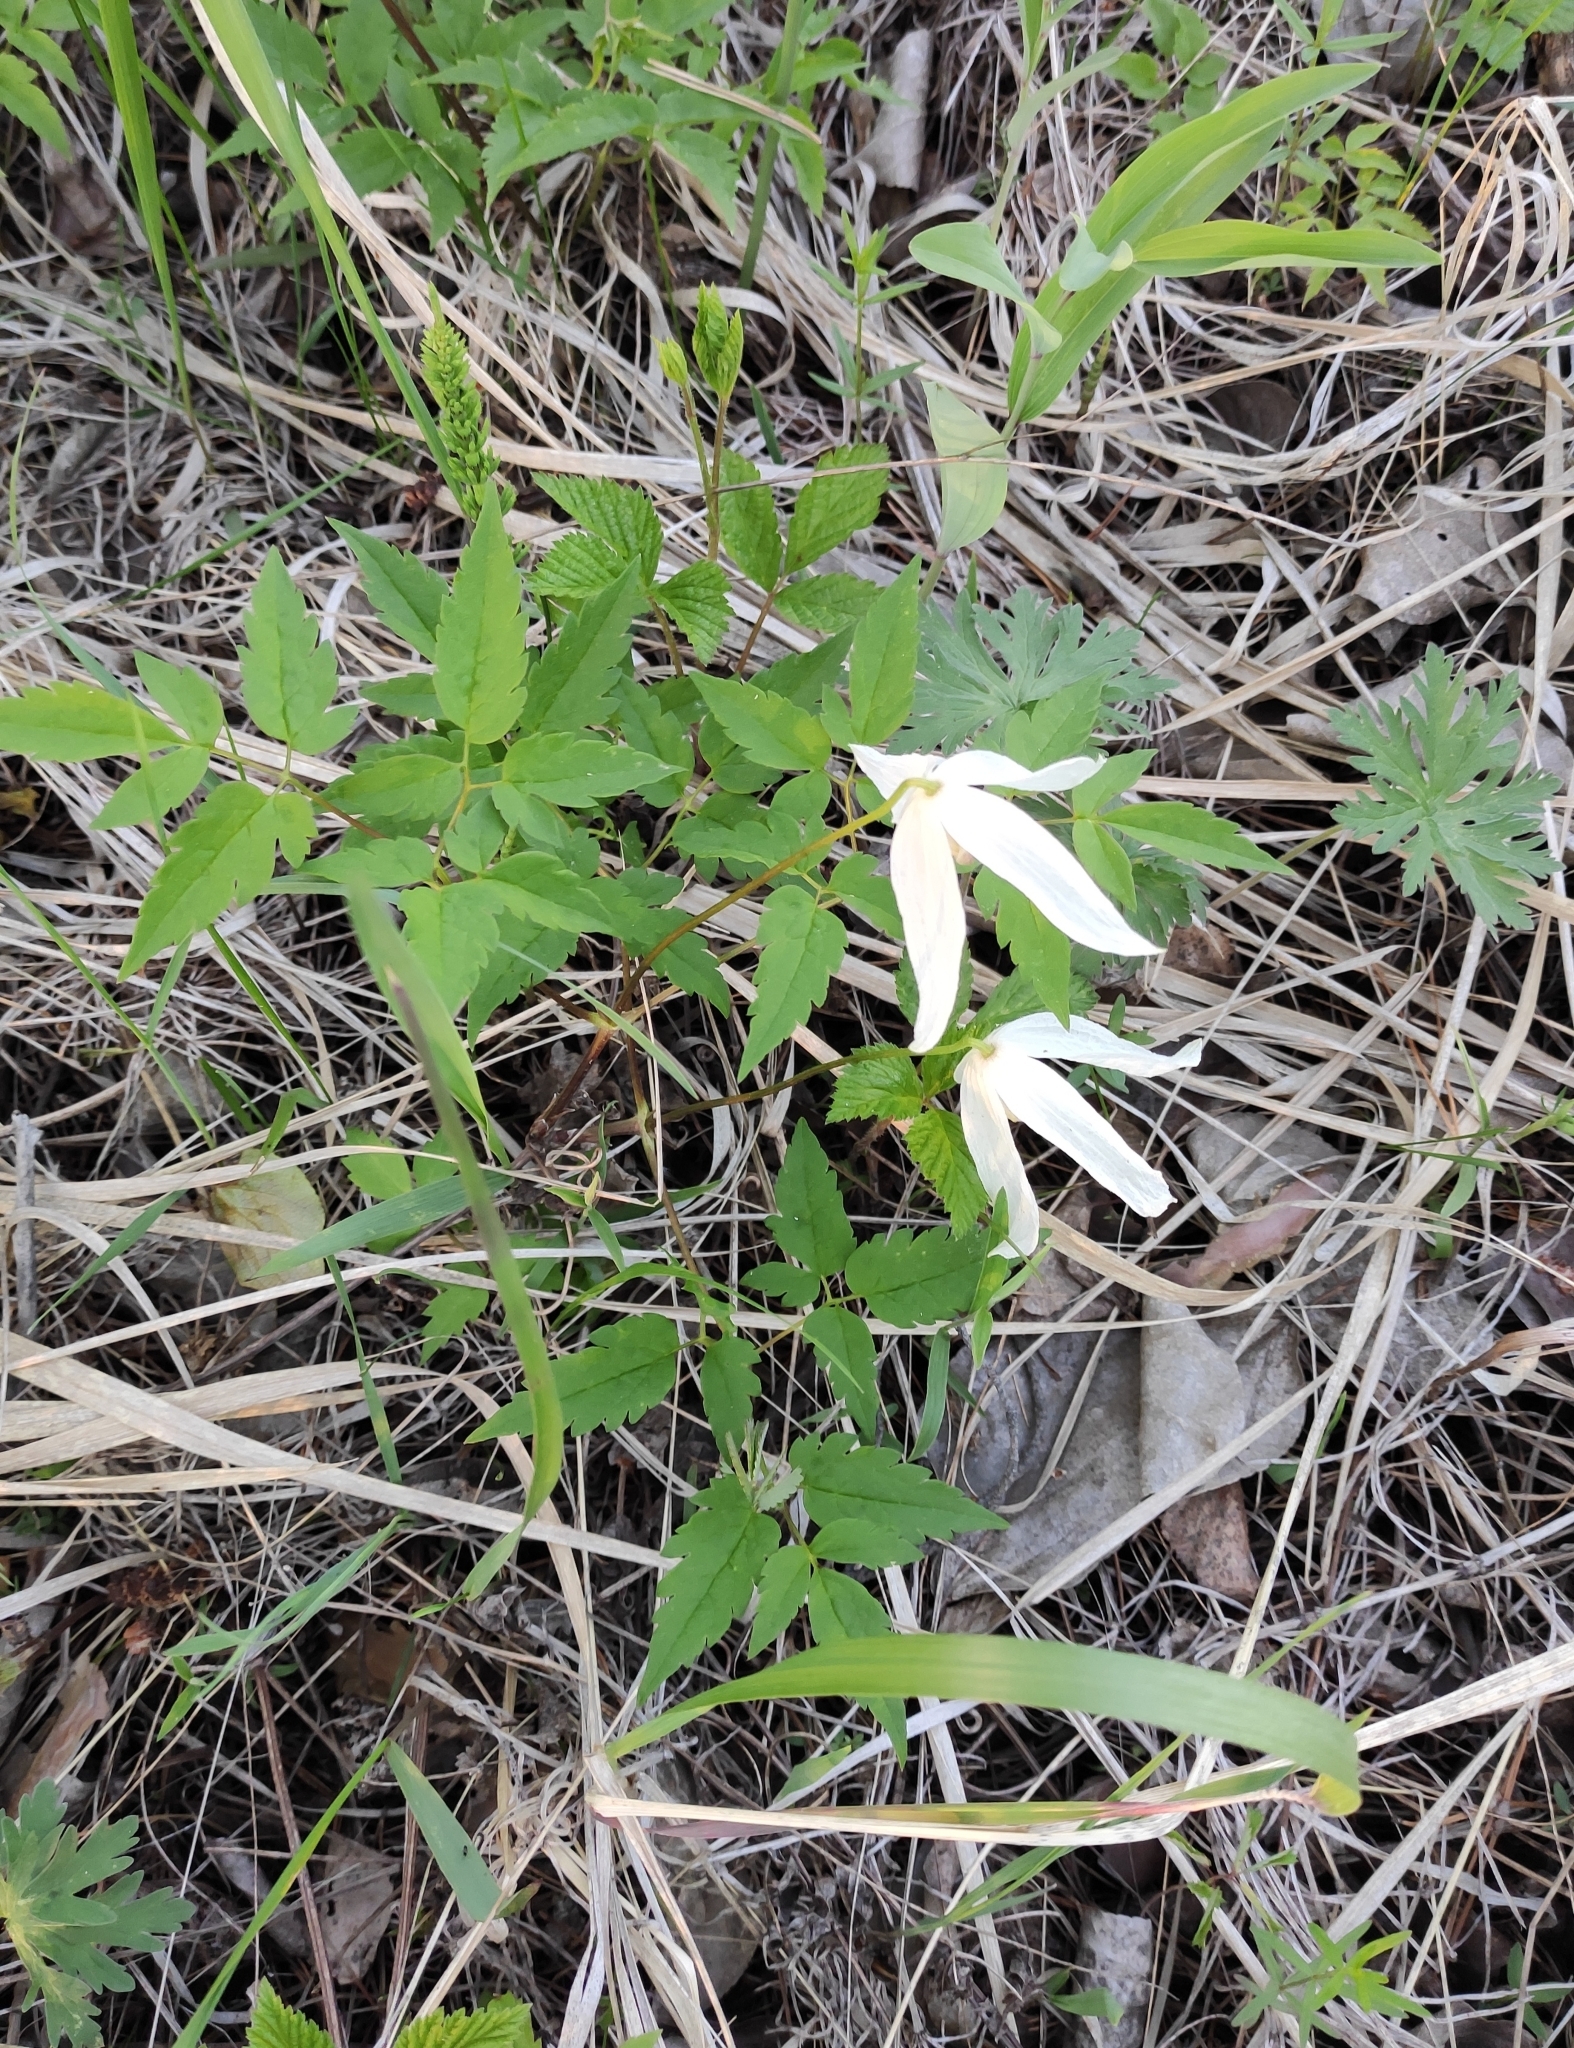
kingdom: Plantae
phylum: Tracheophyta
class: Magnoliopsida
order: Ranunculales
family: Ranunculaceae
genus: Clematis
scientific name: Clematis sibirica
